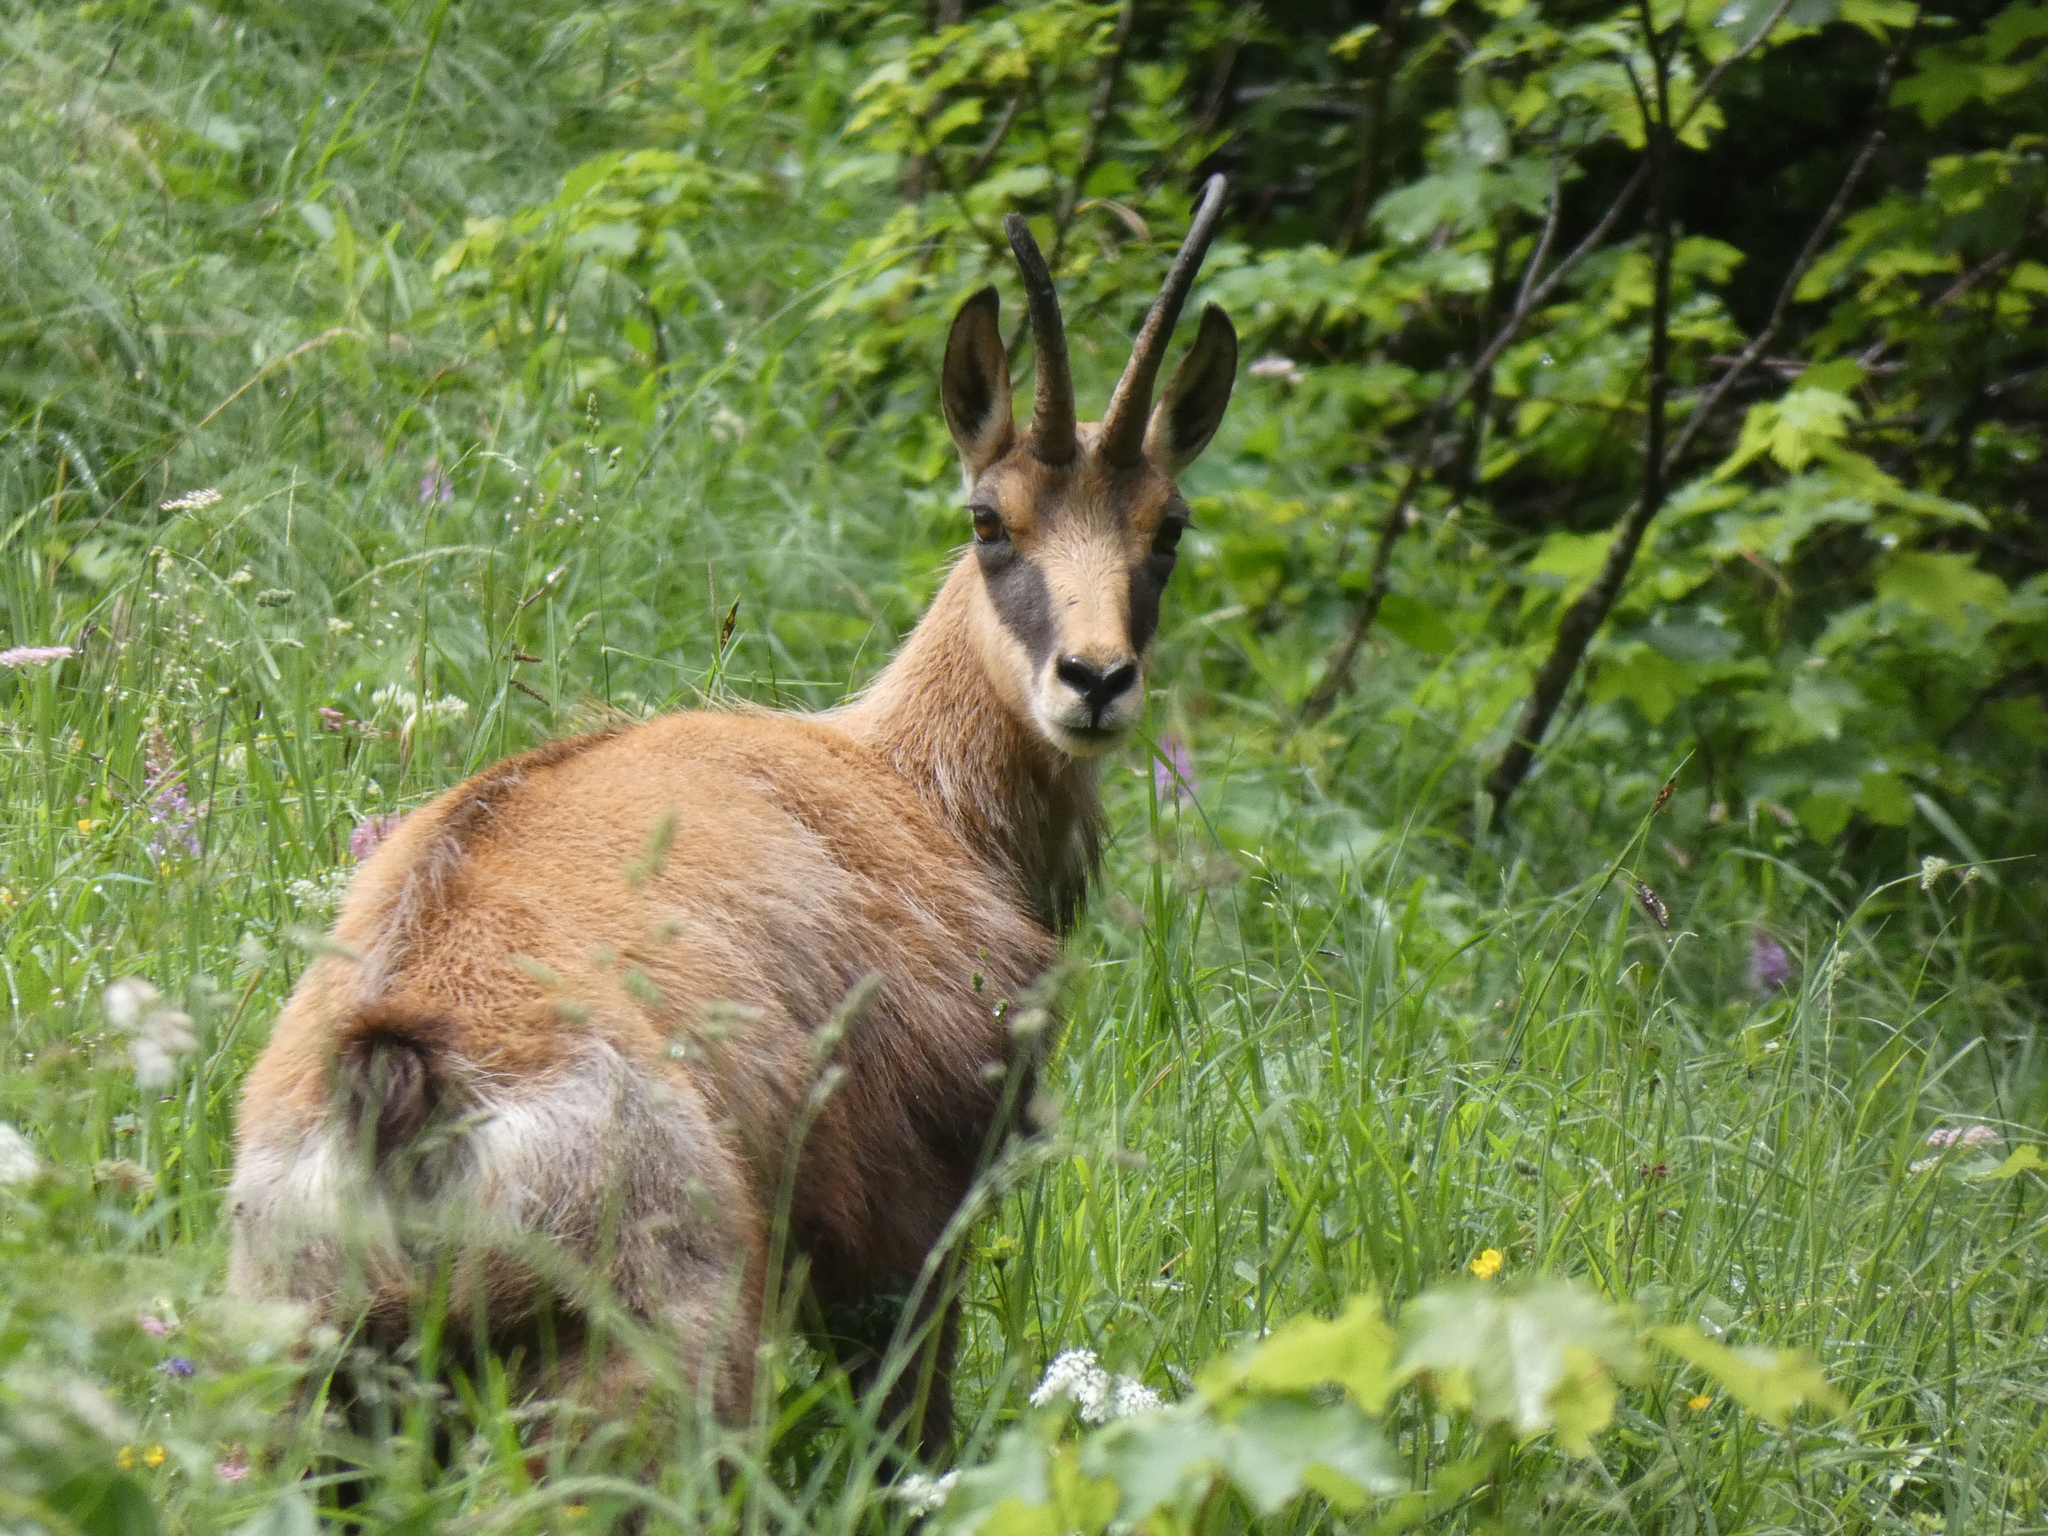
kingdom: Animalia
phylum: Chordata
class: Mammalia
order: Artiodactyla
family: Bovidae
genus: Rupicapra
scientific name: Rupicapra rupicapra
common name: Chamois
